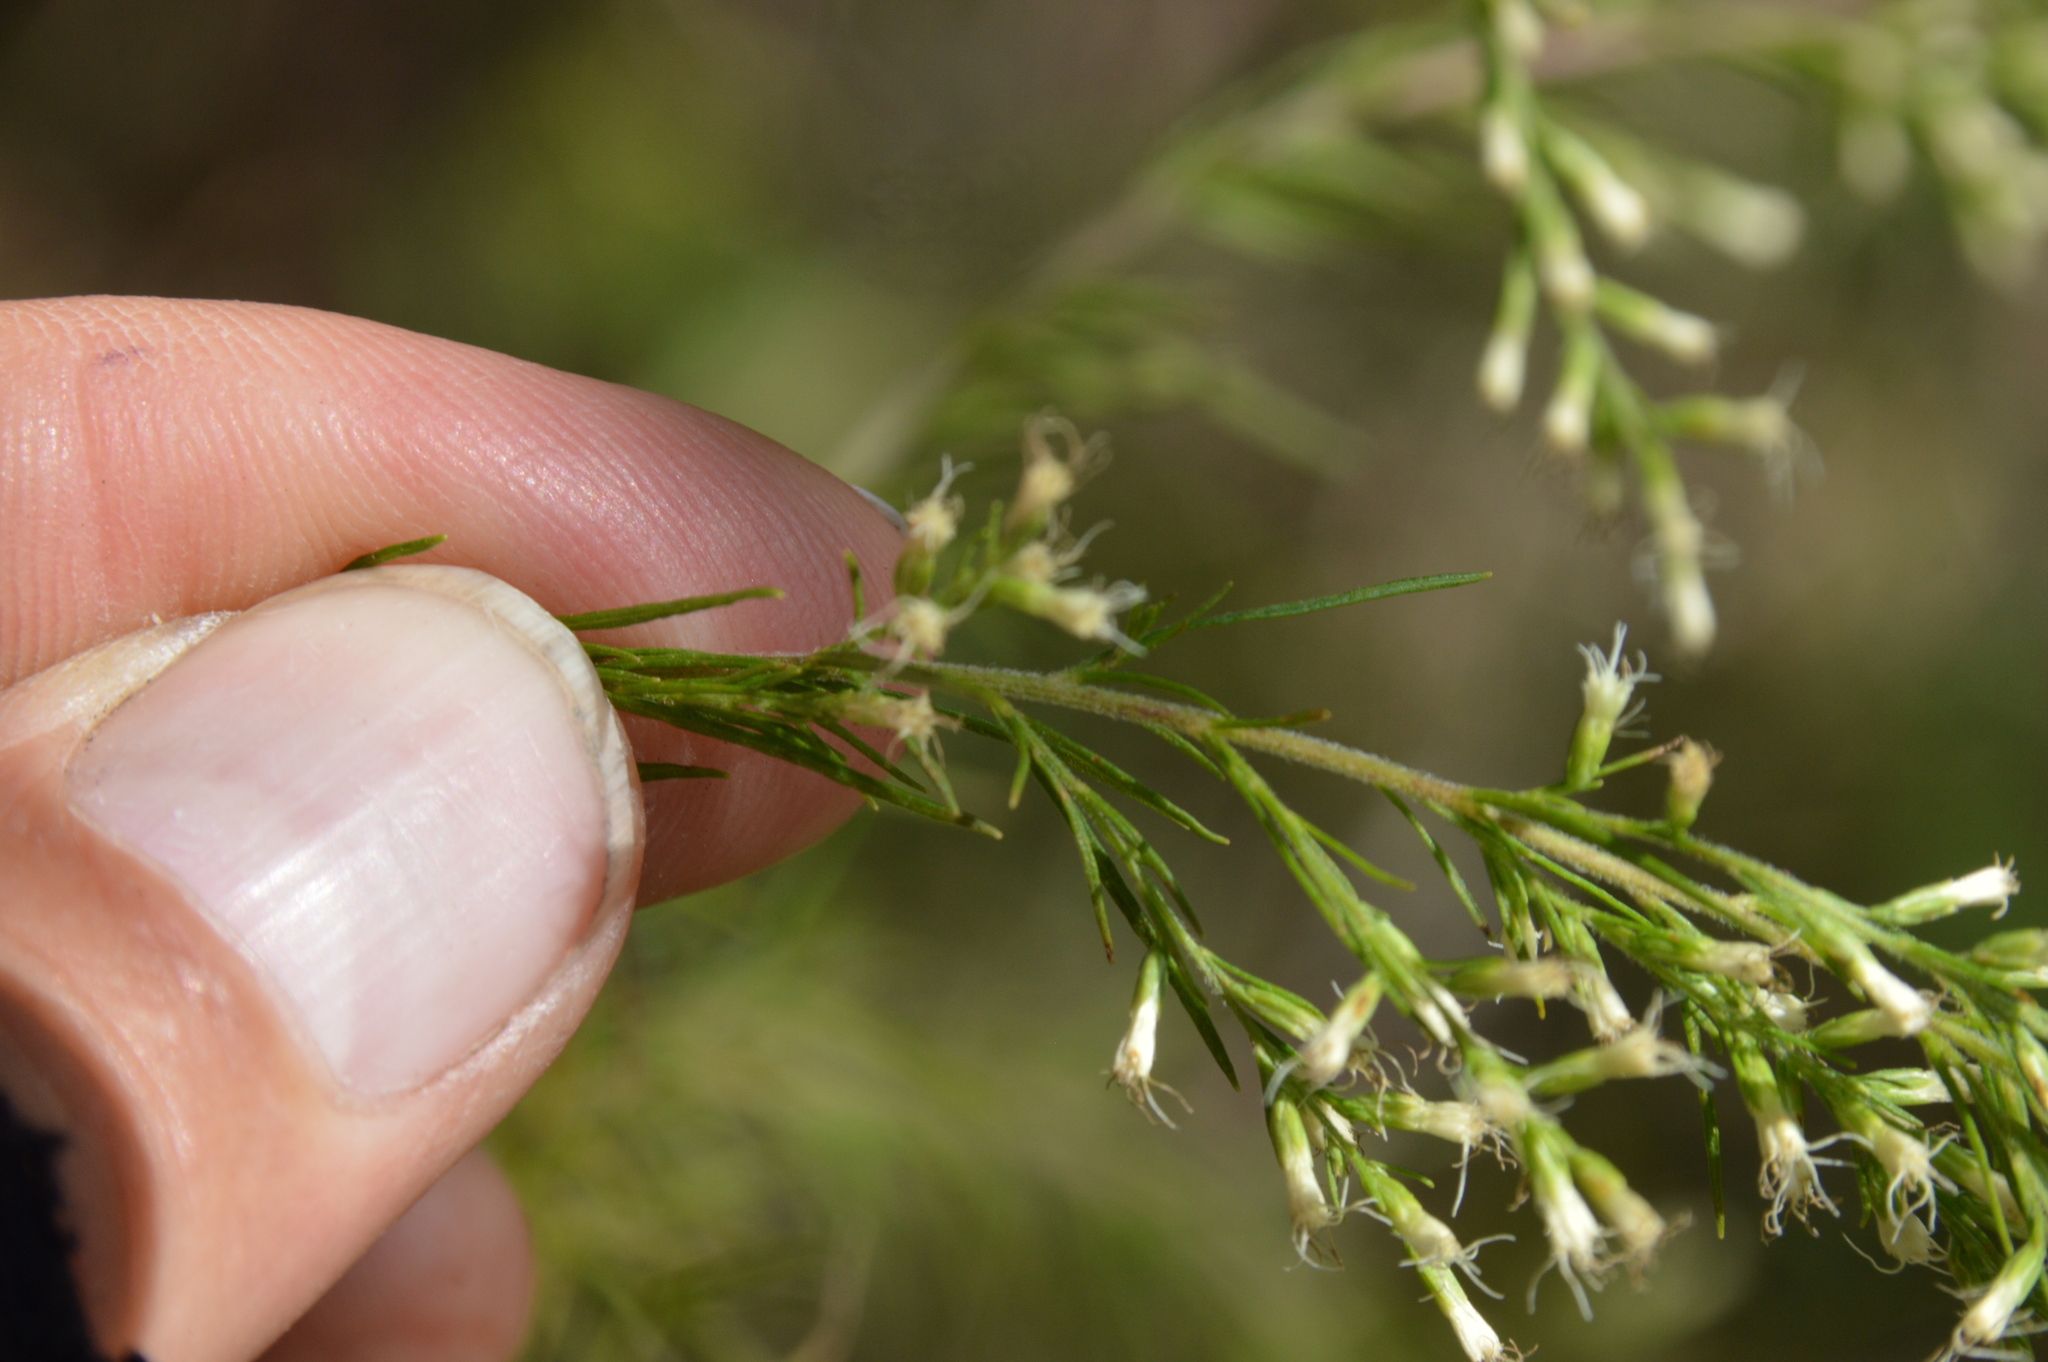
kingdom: Plantae
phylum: Tracheophyta
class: Magnoliopsida
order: Asterales
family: Asteraceae
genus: Eupatorium
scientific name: Eupatorium capillifolium
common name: Dog-fennel
